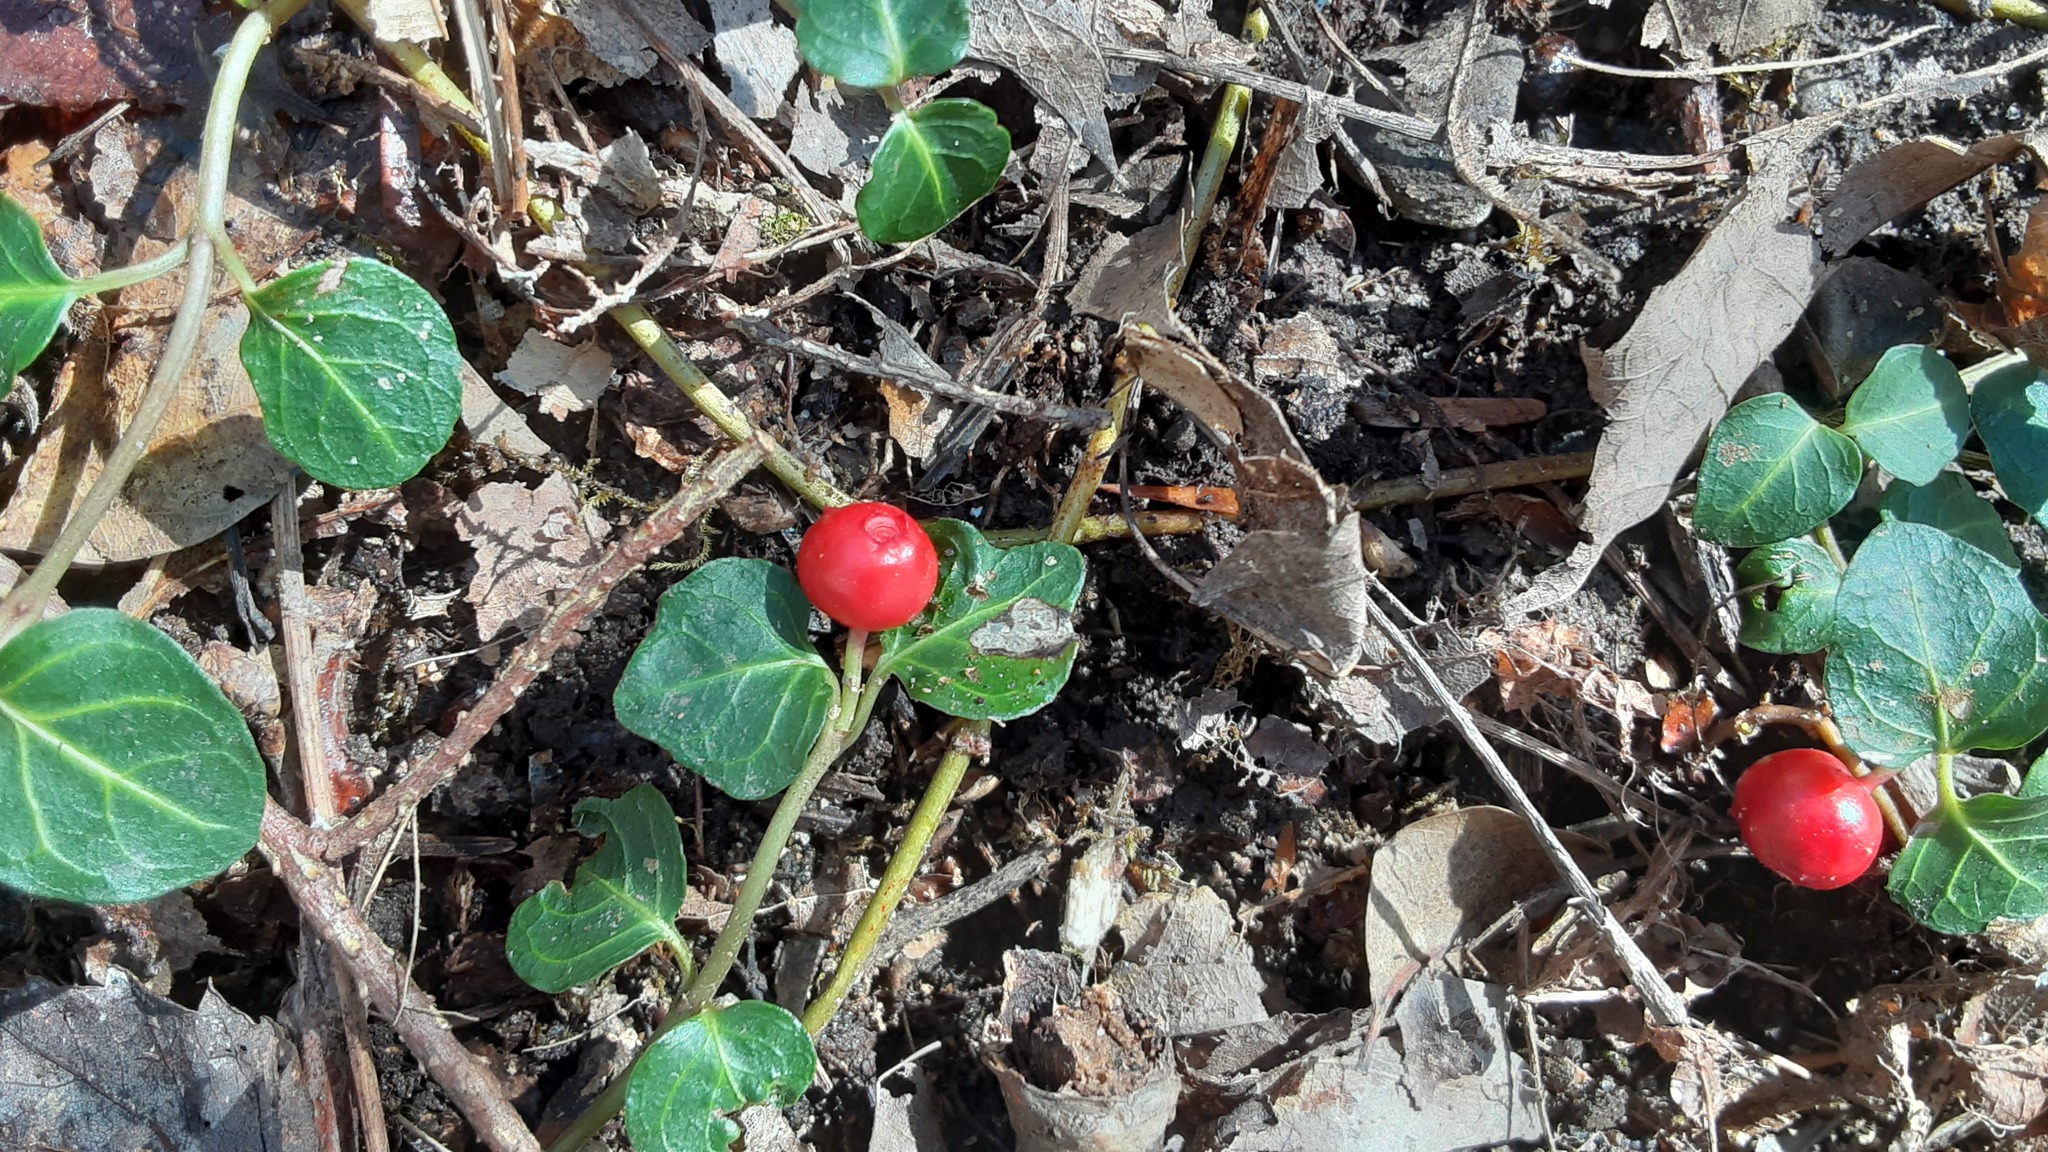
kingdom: Plantae
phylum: Tracheophyta
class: Magnoliopsida
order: Gentianales
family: Rubiaceae
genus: Mitchella
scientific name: Mitchella repens
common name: Partridge-berry
